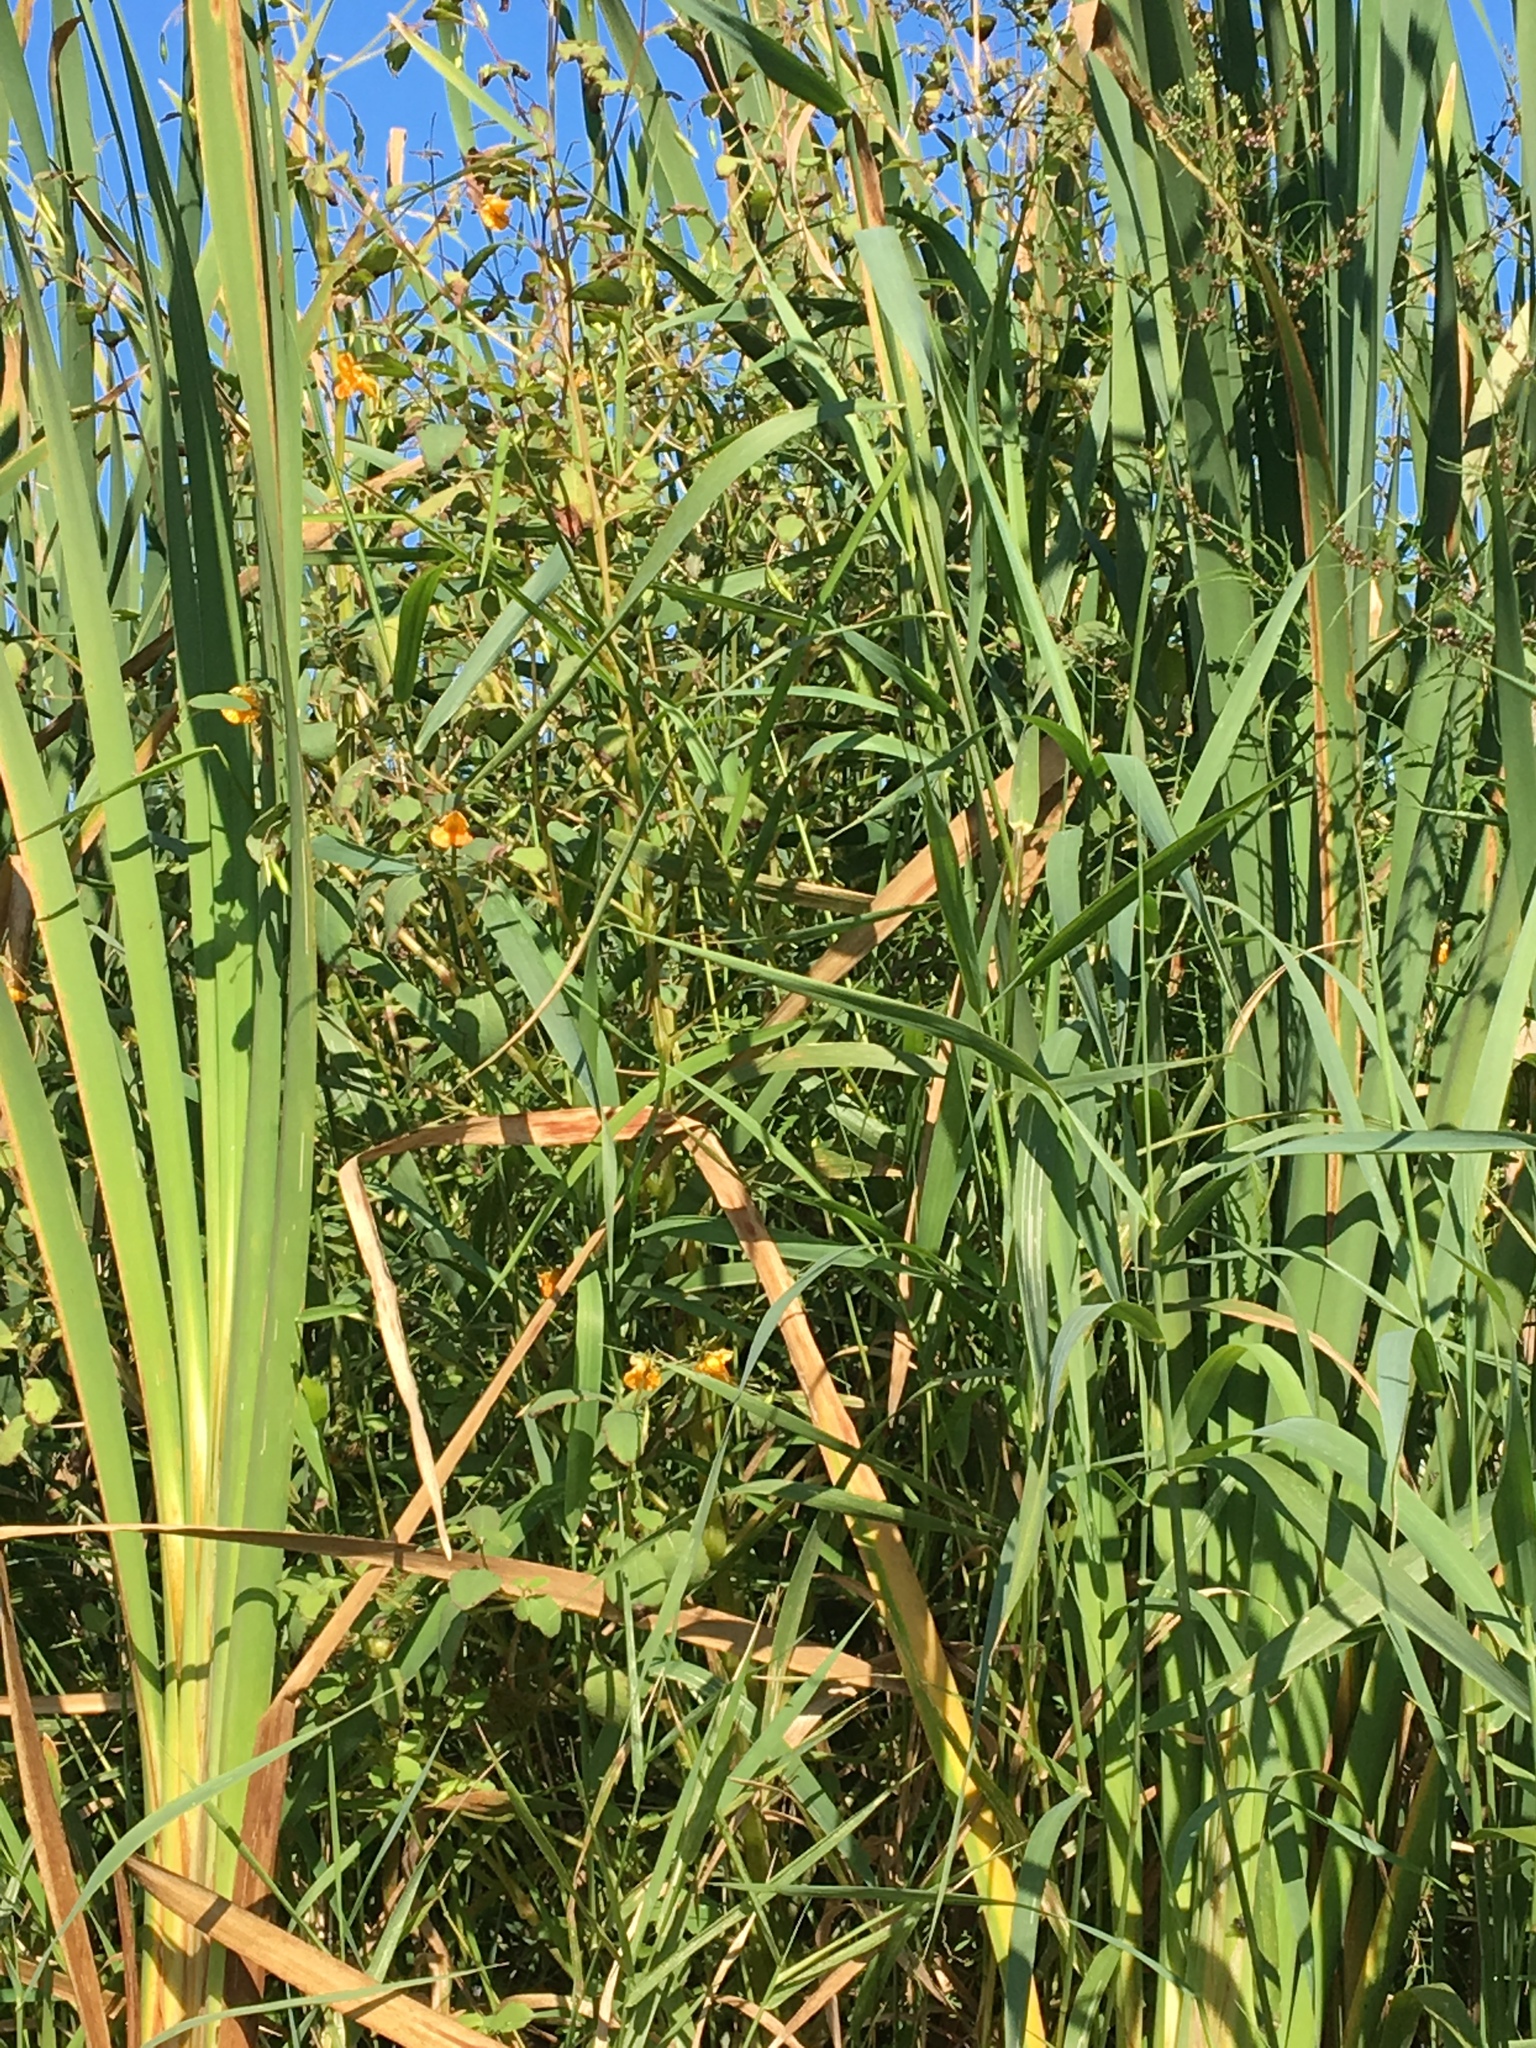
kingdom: Plantae
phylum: Tracheophyta
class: Magnoliopsida
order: Ericales
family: Balsaminaceae
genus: Impatiens
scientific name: Impatiens capensis
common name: Orange balsam
